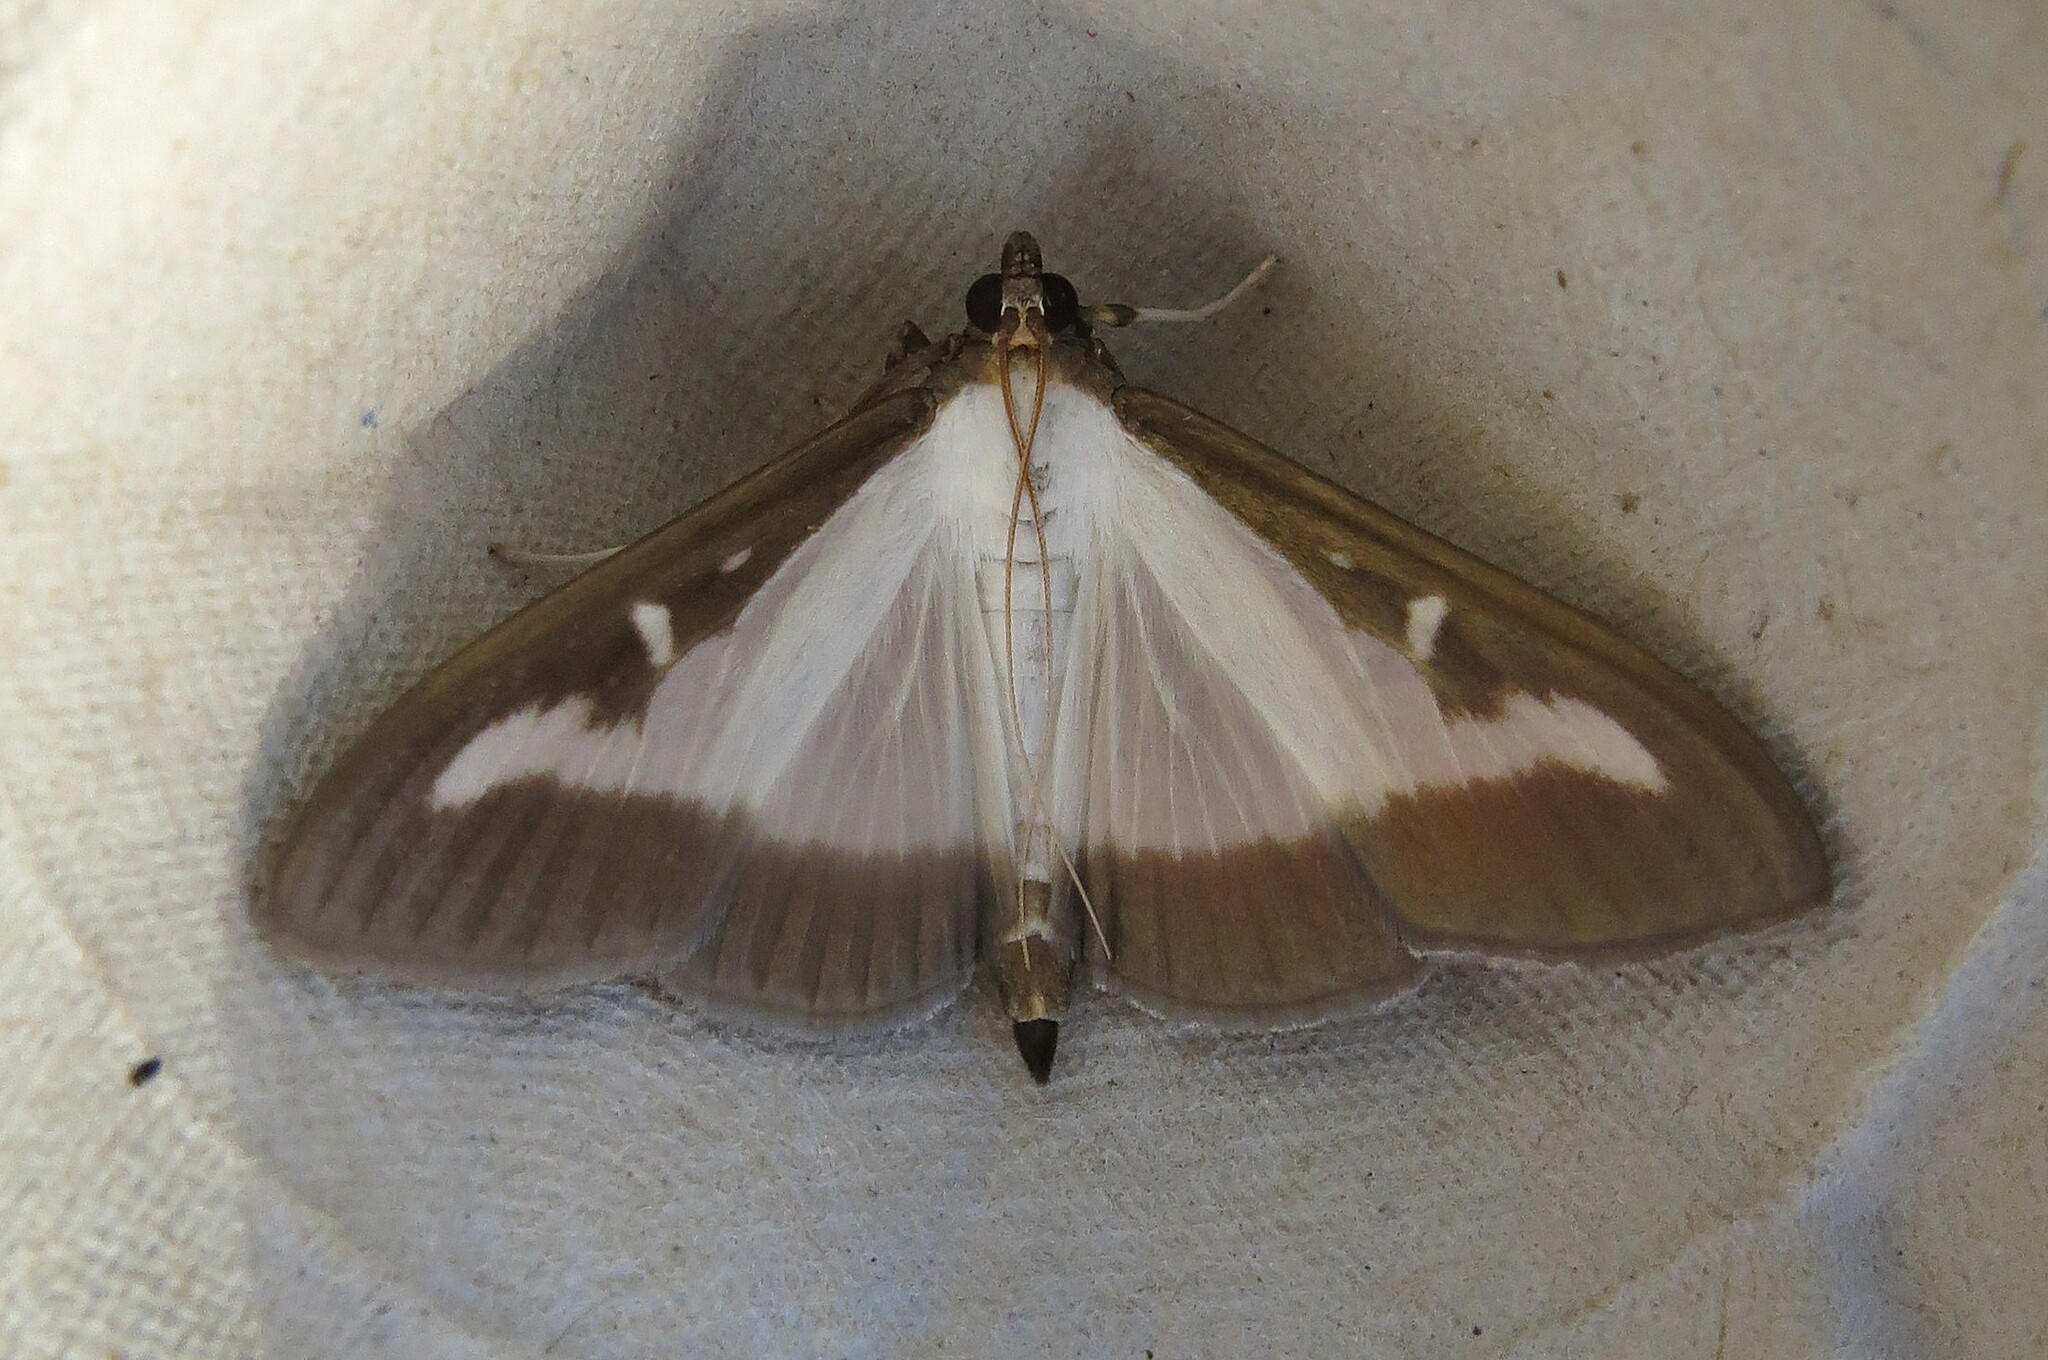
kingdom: Animalia
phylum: Arthropoda
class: Insecta
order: Lepidoptera
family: Crambidae
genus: Cydalima
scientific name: Cydalima perspectalis
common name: Box tree moth
